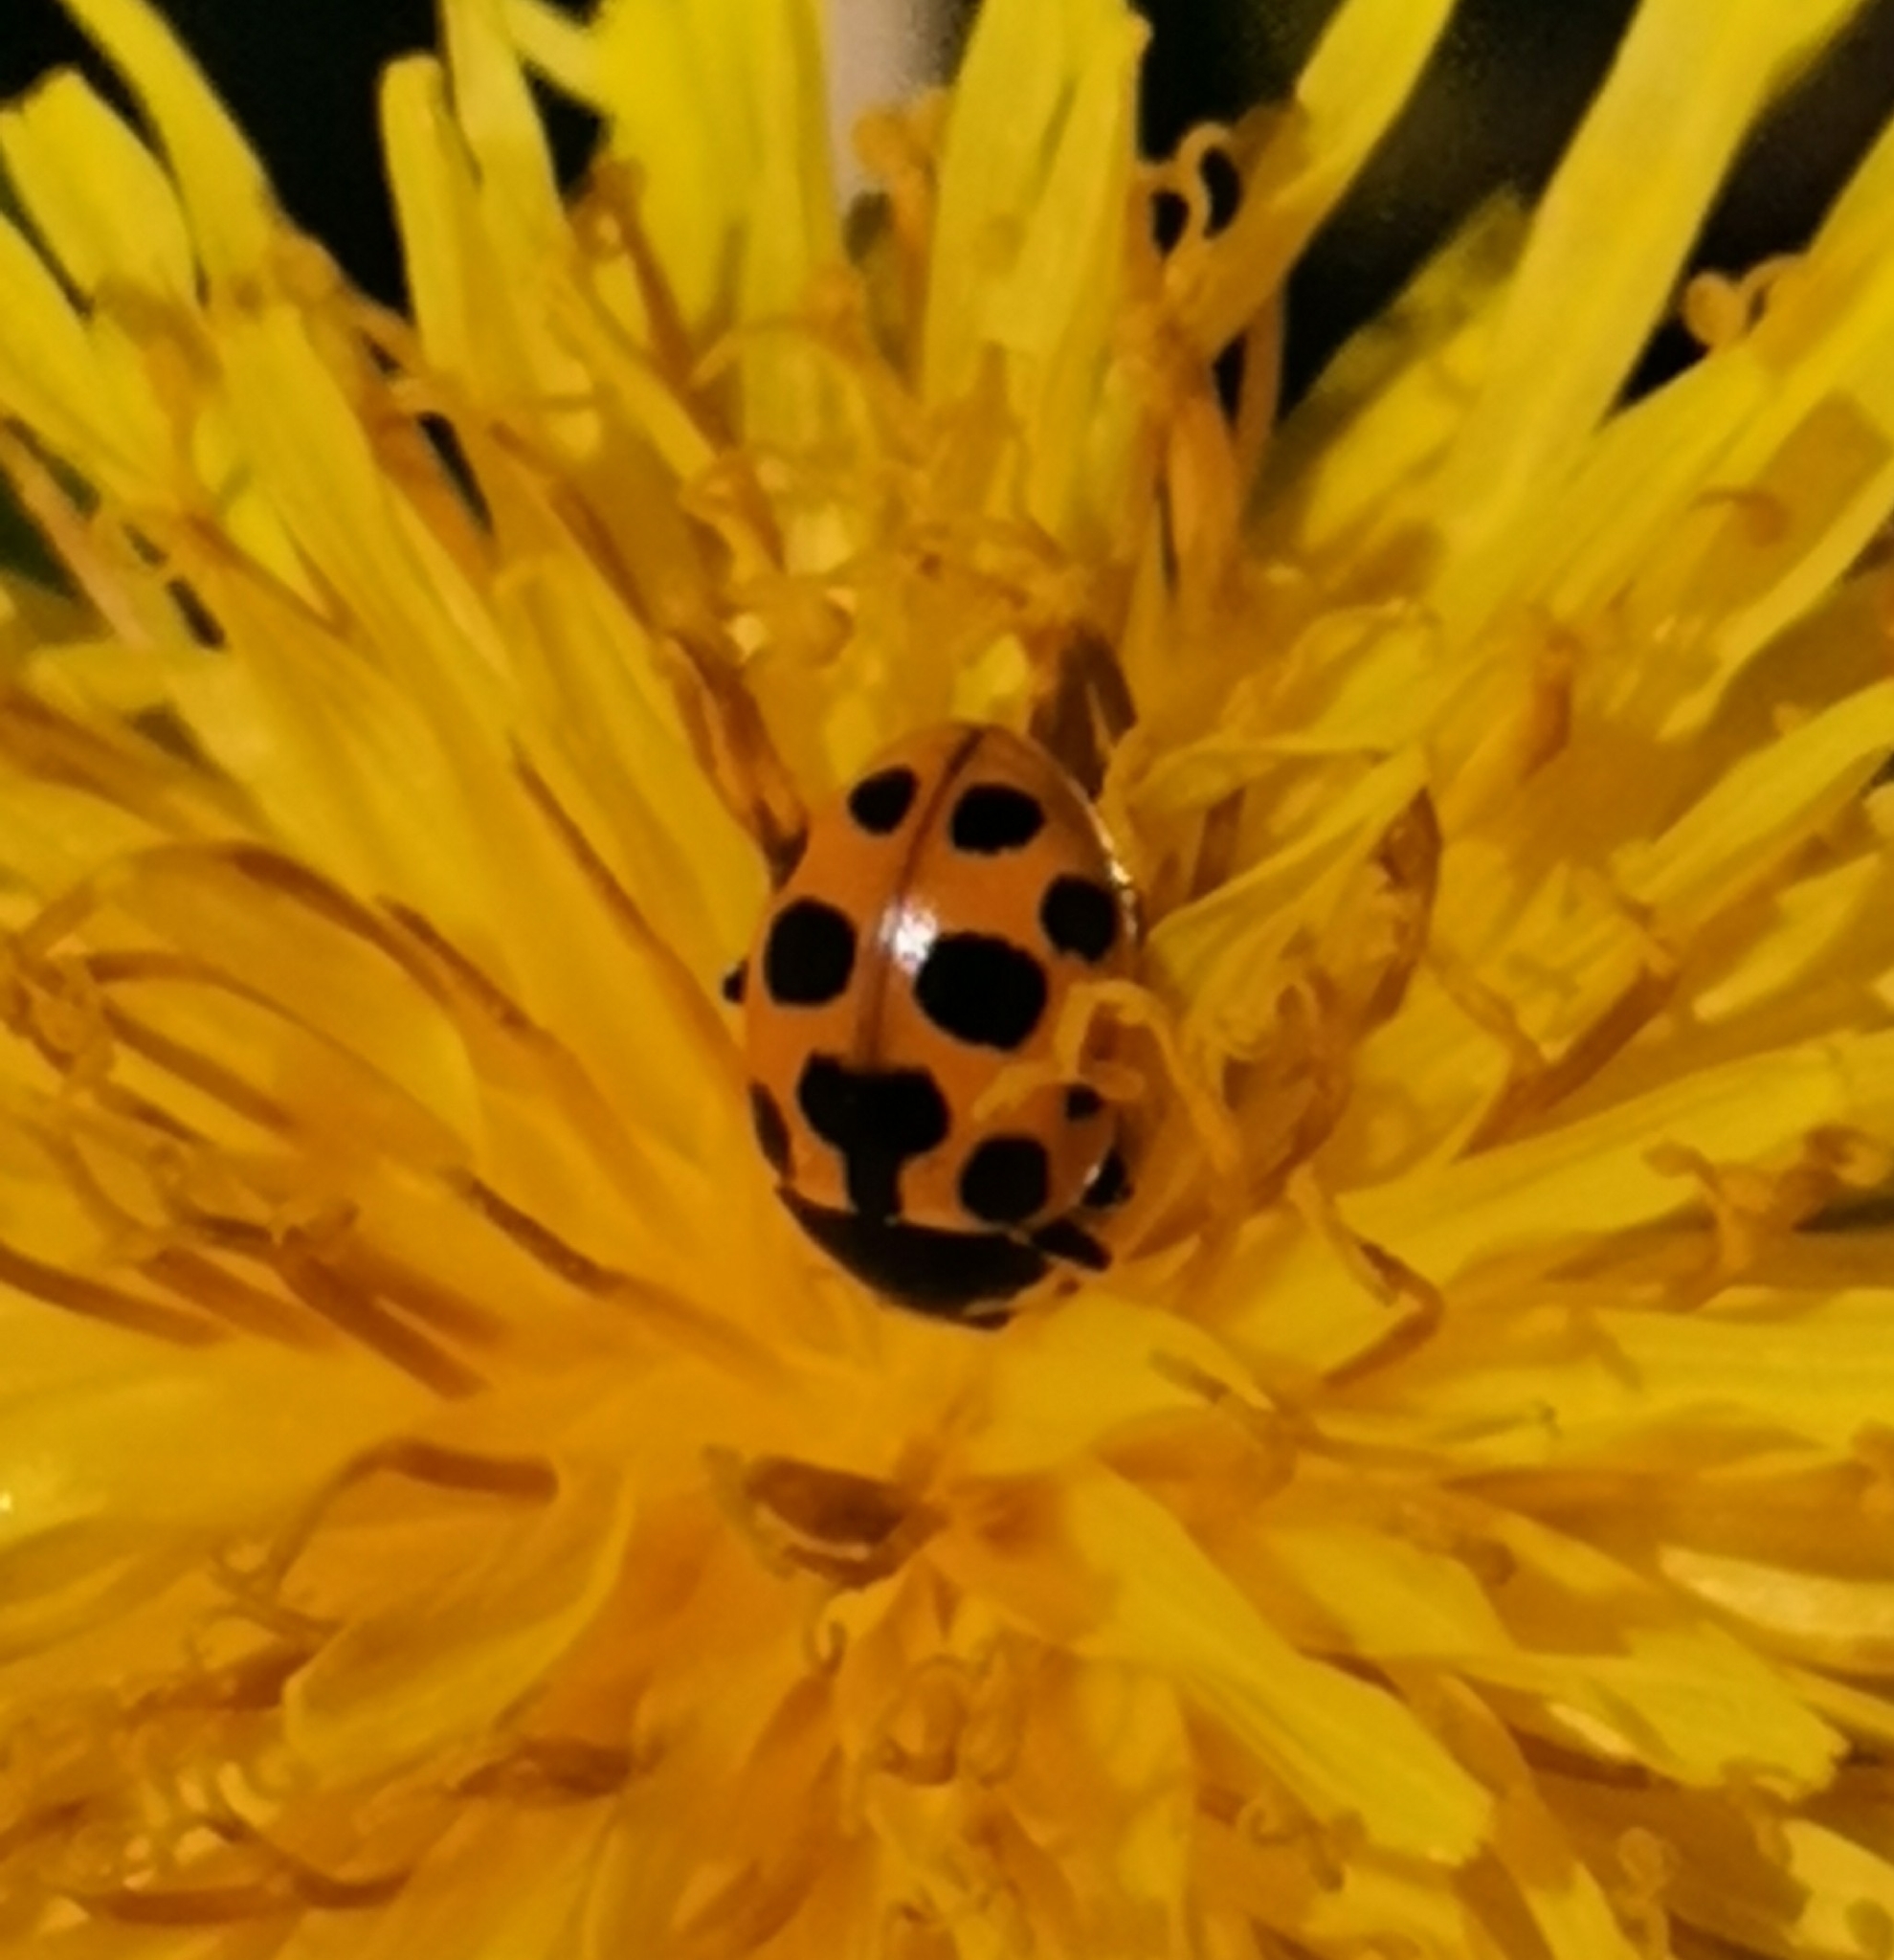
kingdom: Animalia
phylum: Arthropoda
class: Insecta
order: Coleoptera
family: Coccinellidae
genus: Ceratomegilla
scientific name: Ceratomegilla notata
